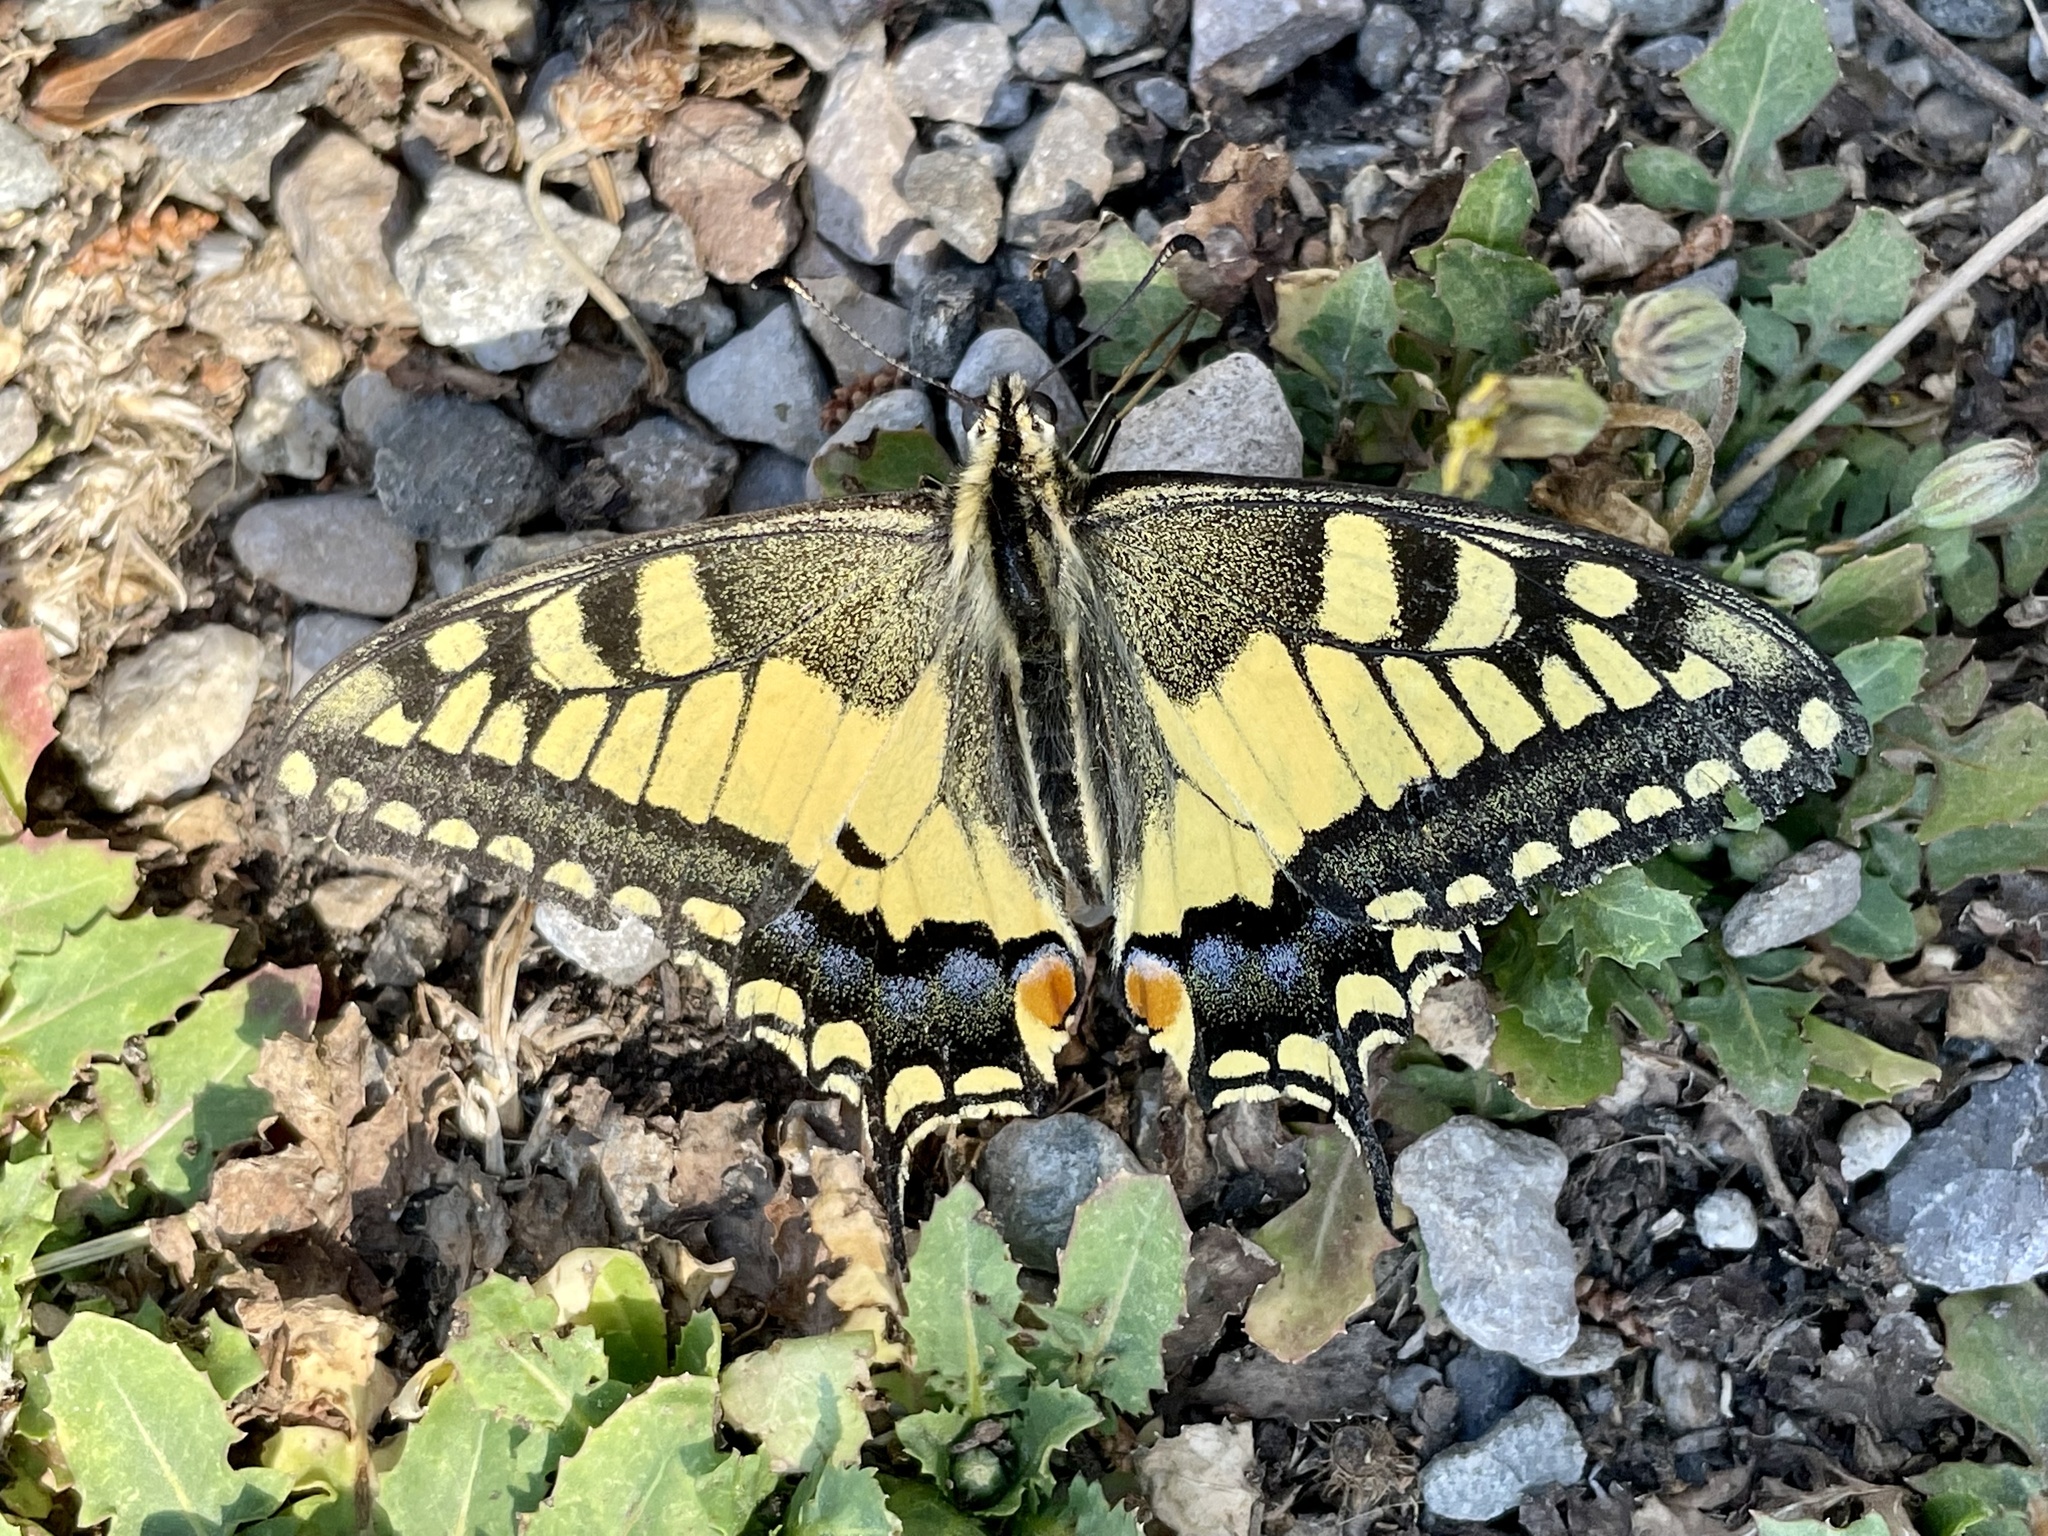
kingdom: Animalia
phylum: Arthropoda
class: Insecta
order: Lepidoptera
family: Papilionidae
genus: Papilio
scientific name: Papilio machaon
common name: Swallowtail
